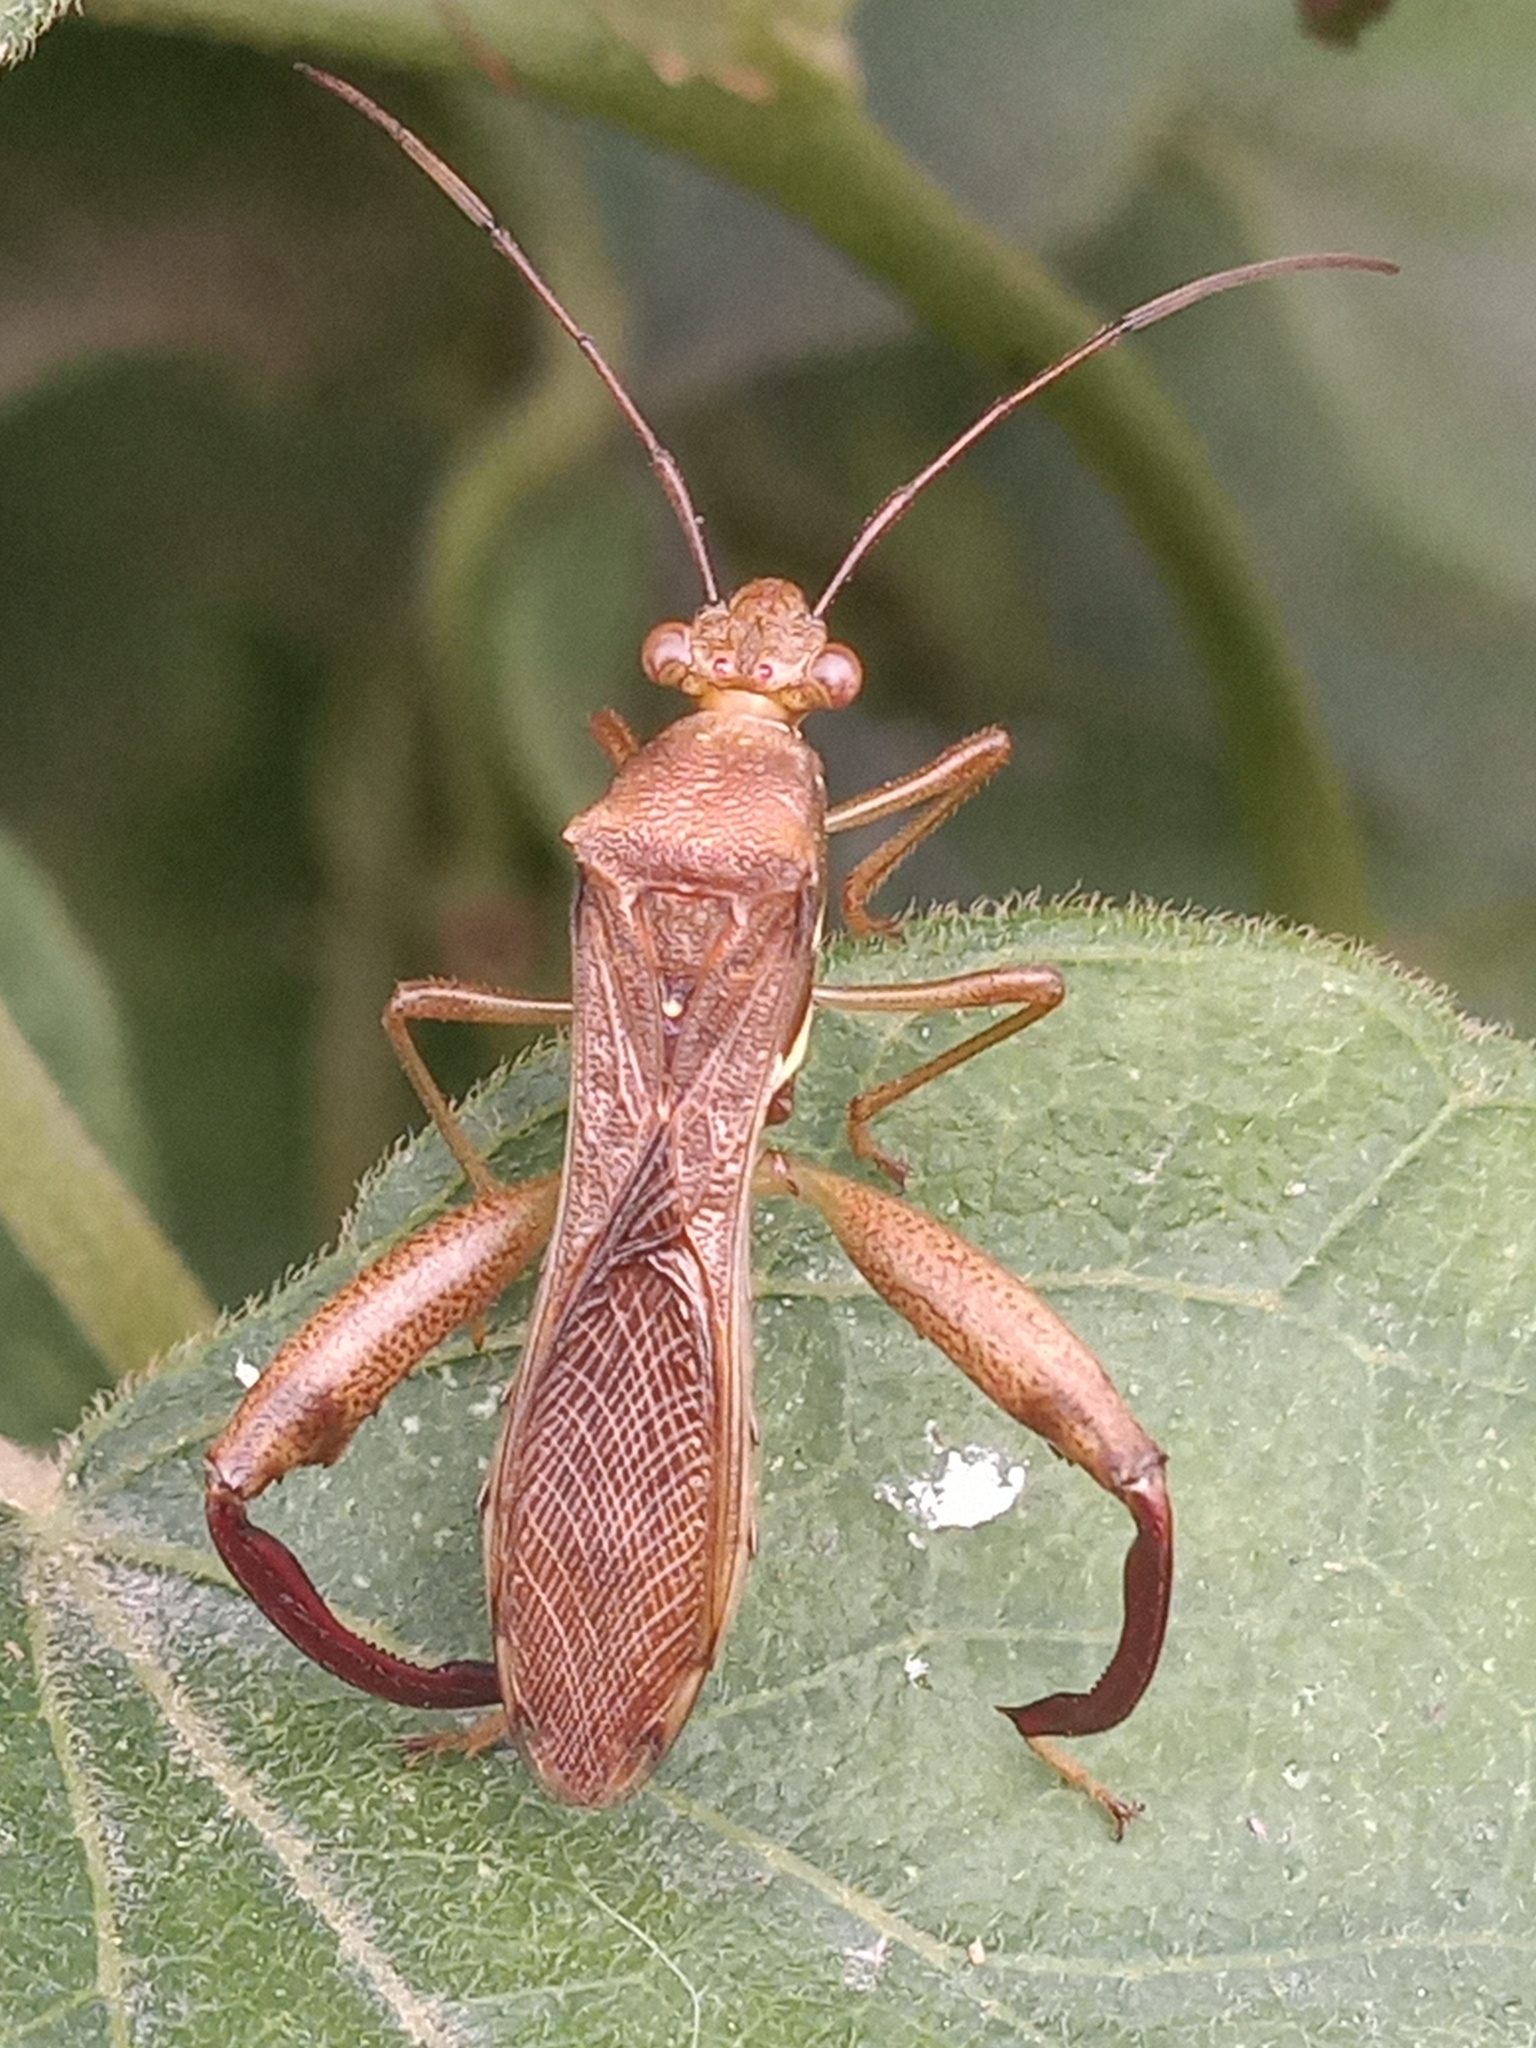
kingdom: Animalia
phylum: Arthropoda
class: Insecta
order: Hemiptera
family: Alydidae
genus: Hyalymenus
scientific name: Hyalymenus tarsatus
